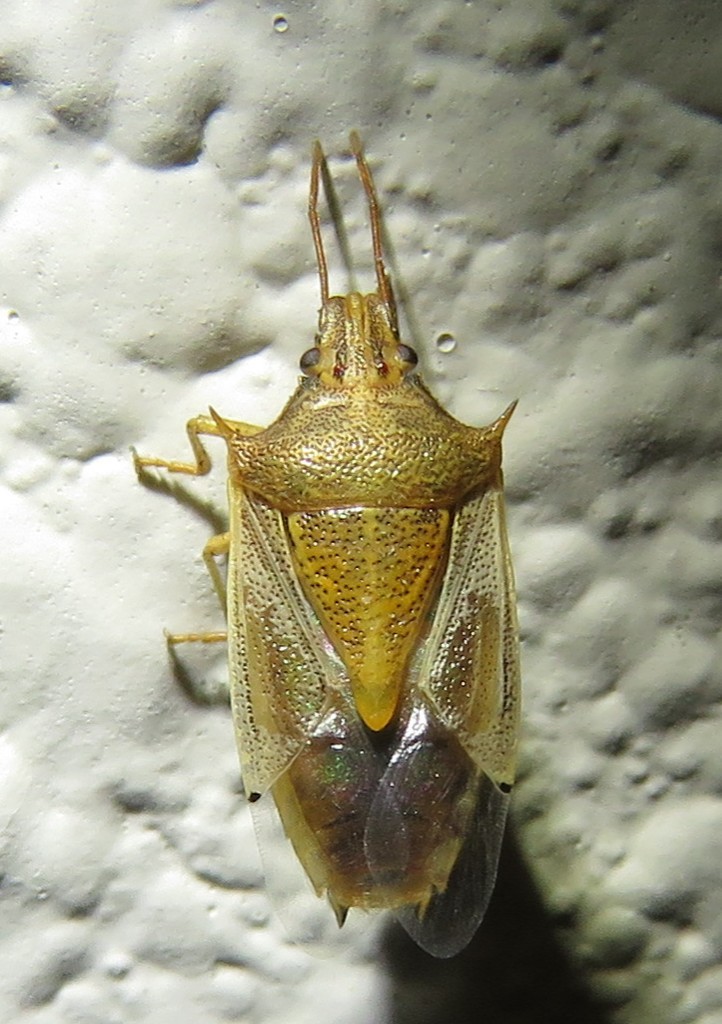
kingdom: Animalia
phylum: Arthropoda
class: Insecta
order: Hemiptera
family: Pentatomidae
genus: Oebalus
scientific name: Oebalus pugnax
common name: Rice stink bug
